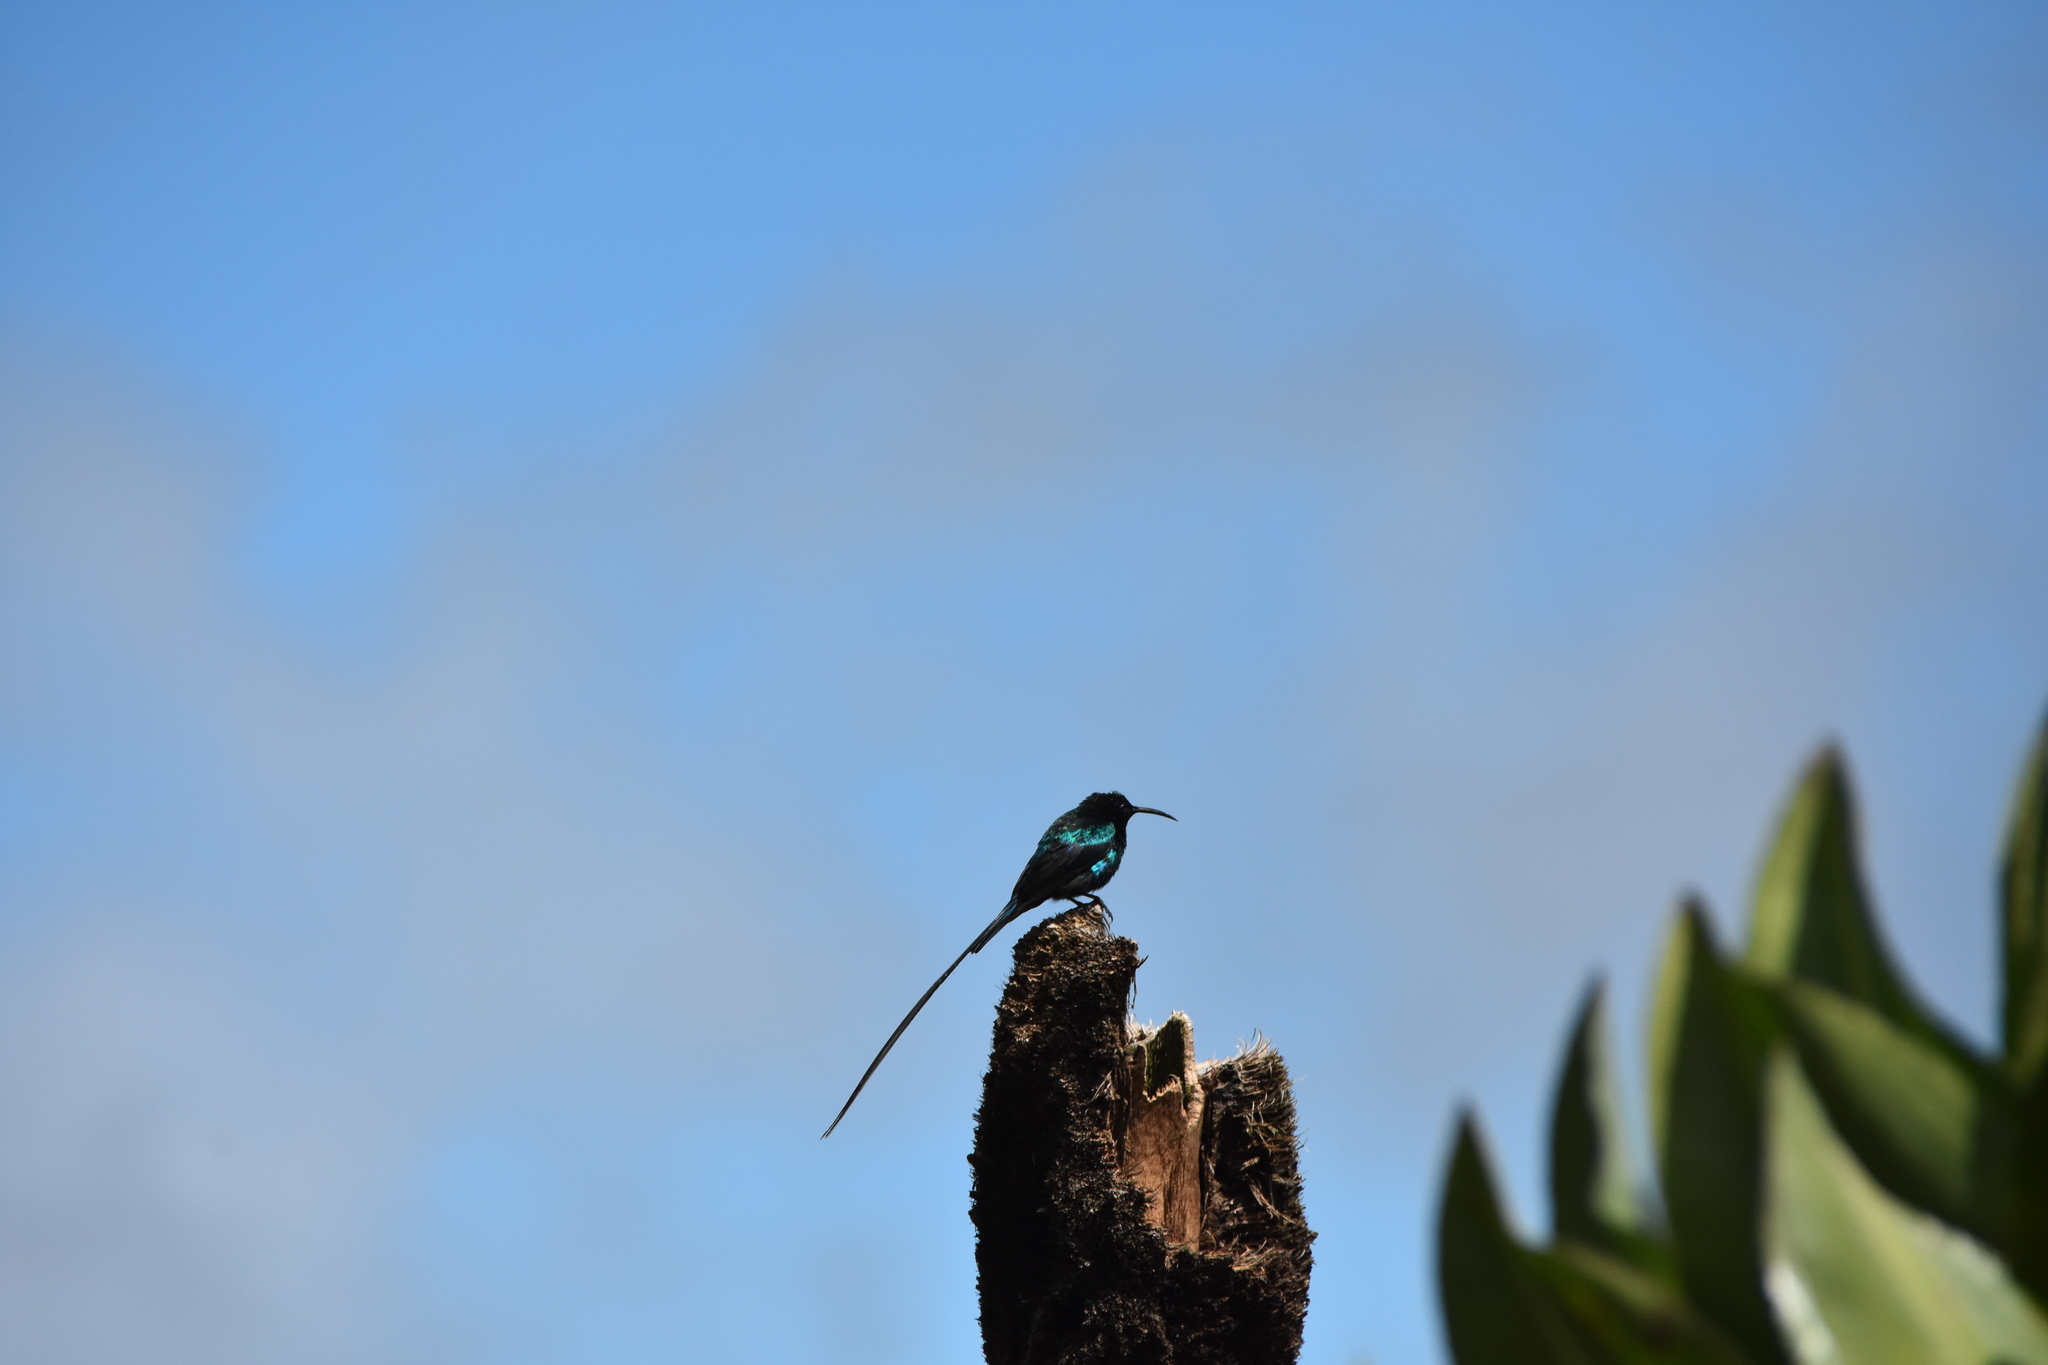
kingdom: Animalia
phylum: Chordata
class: Aves
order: Passeriformes
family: Nectariniidae
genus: Nectarinia
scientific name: Nectarinia johnstoni
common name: Scarlet-tufted sunbird
